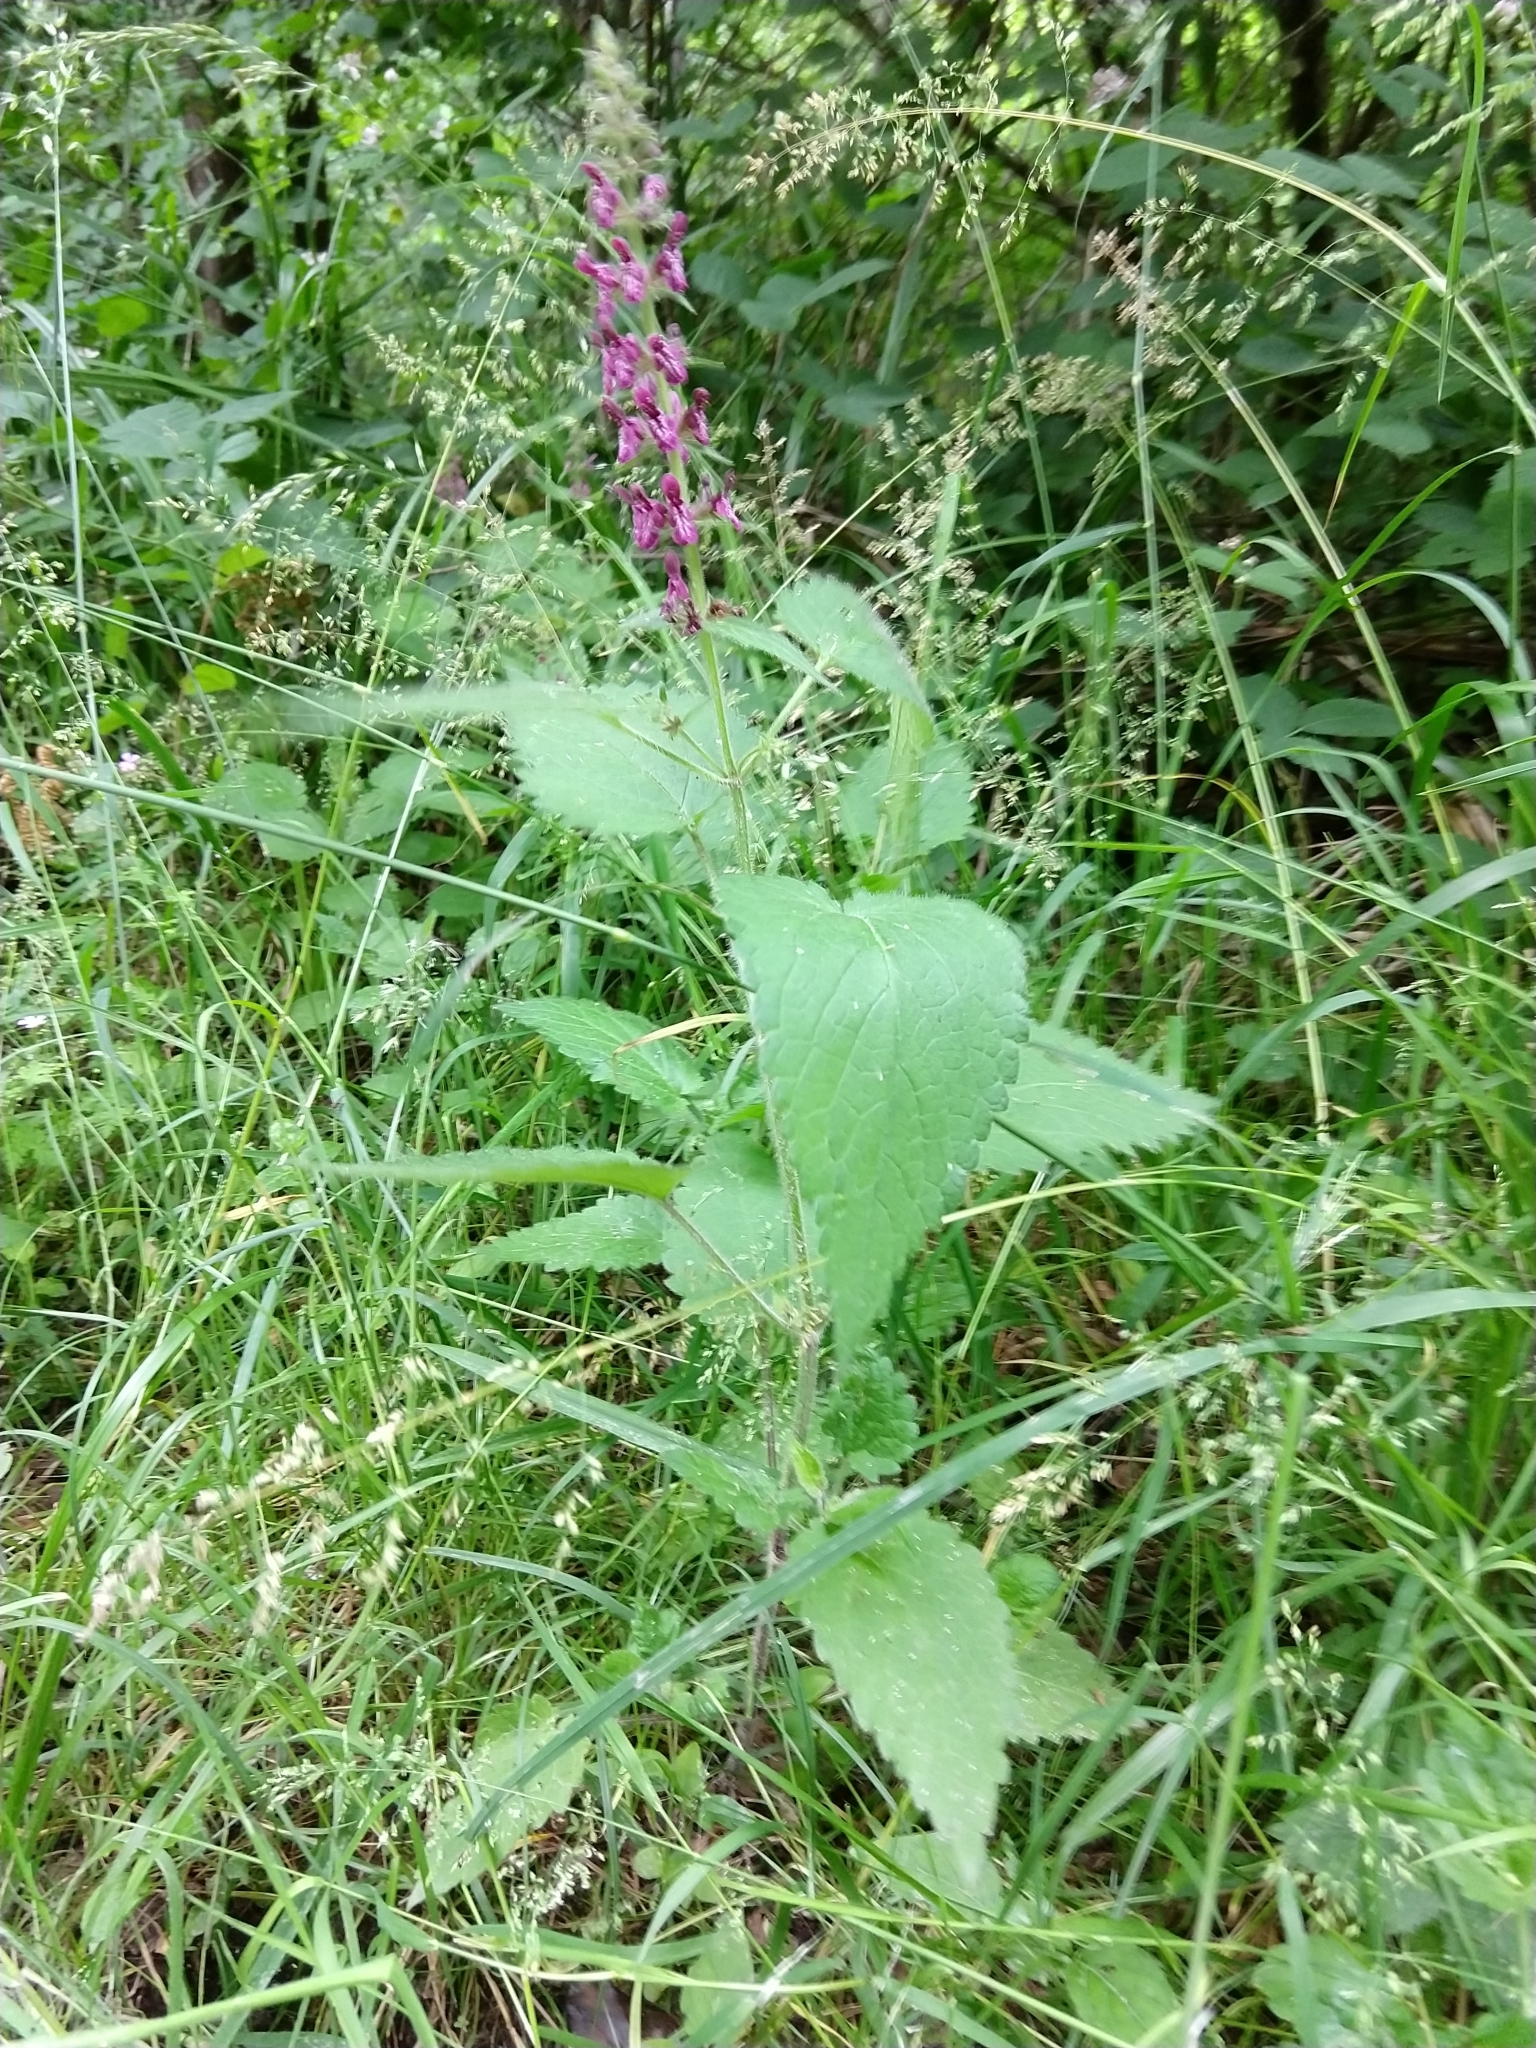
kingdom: Plantae
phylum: Tracheophyta
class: Magnoliopsida
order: Lamiales
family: Lamiaceae
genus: Stachys
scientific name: Stachys sylvatica
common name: Hedge woundwort
